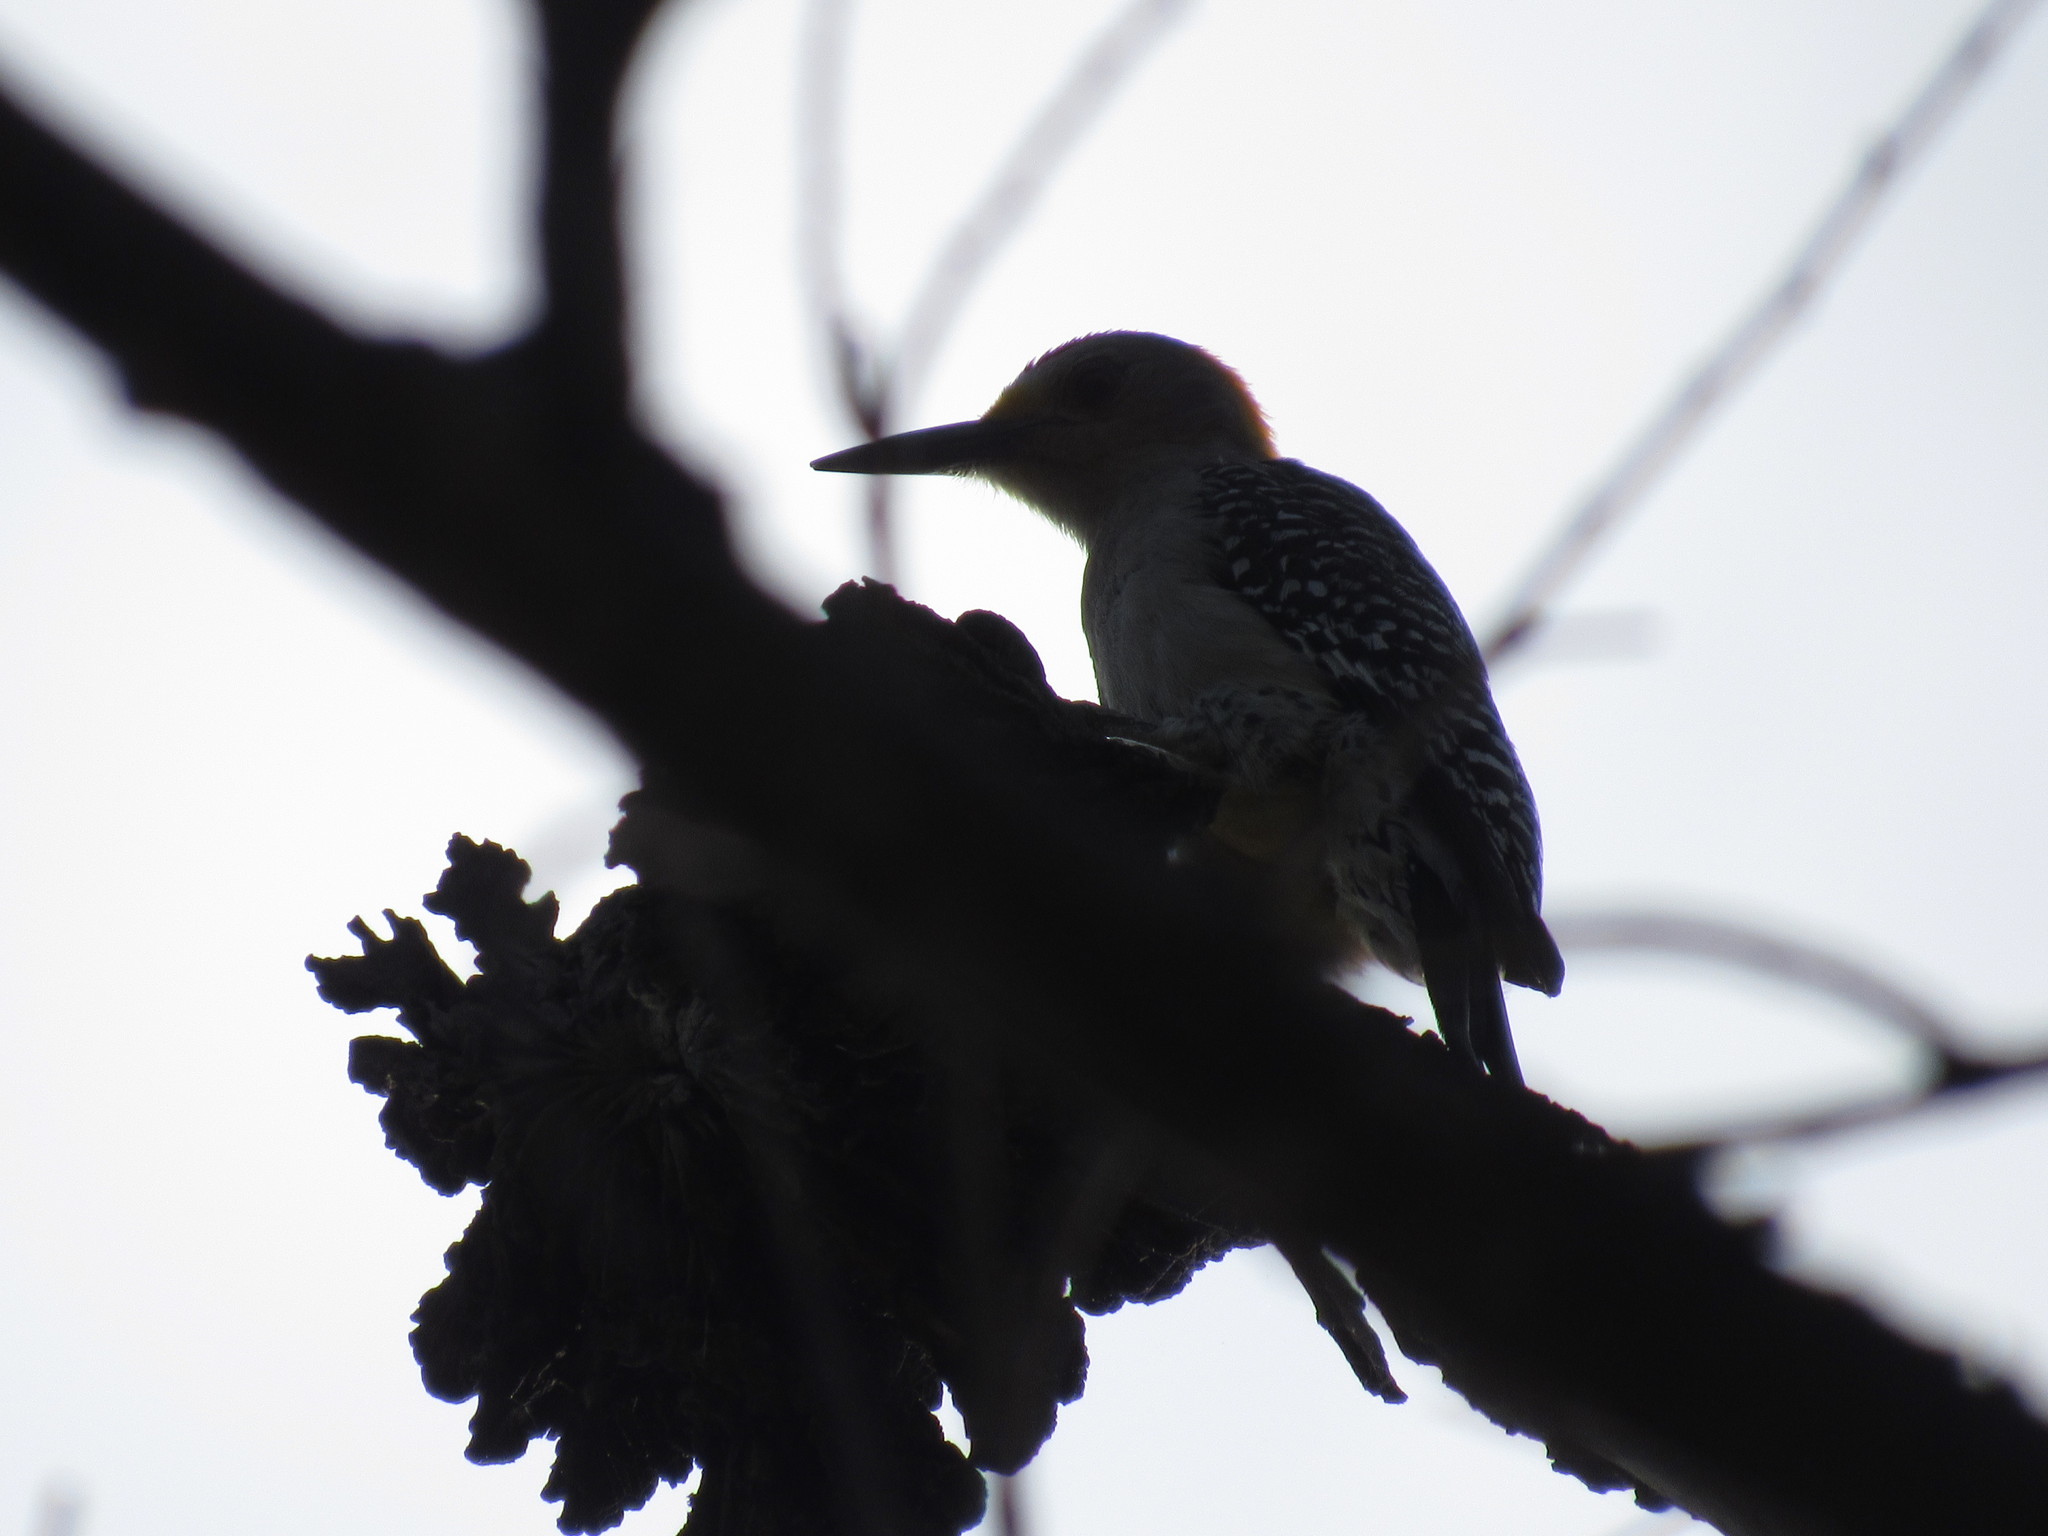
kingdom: Animalia
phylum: Chordata
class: Aves
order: Piciformes
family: Picidae
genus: Melanerpes
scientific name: Melanerpes aurifrons
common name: Golden-fronted woodpecker
